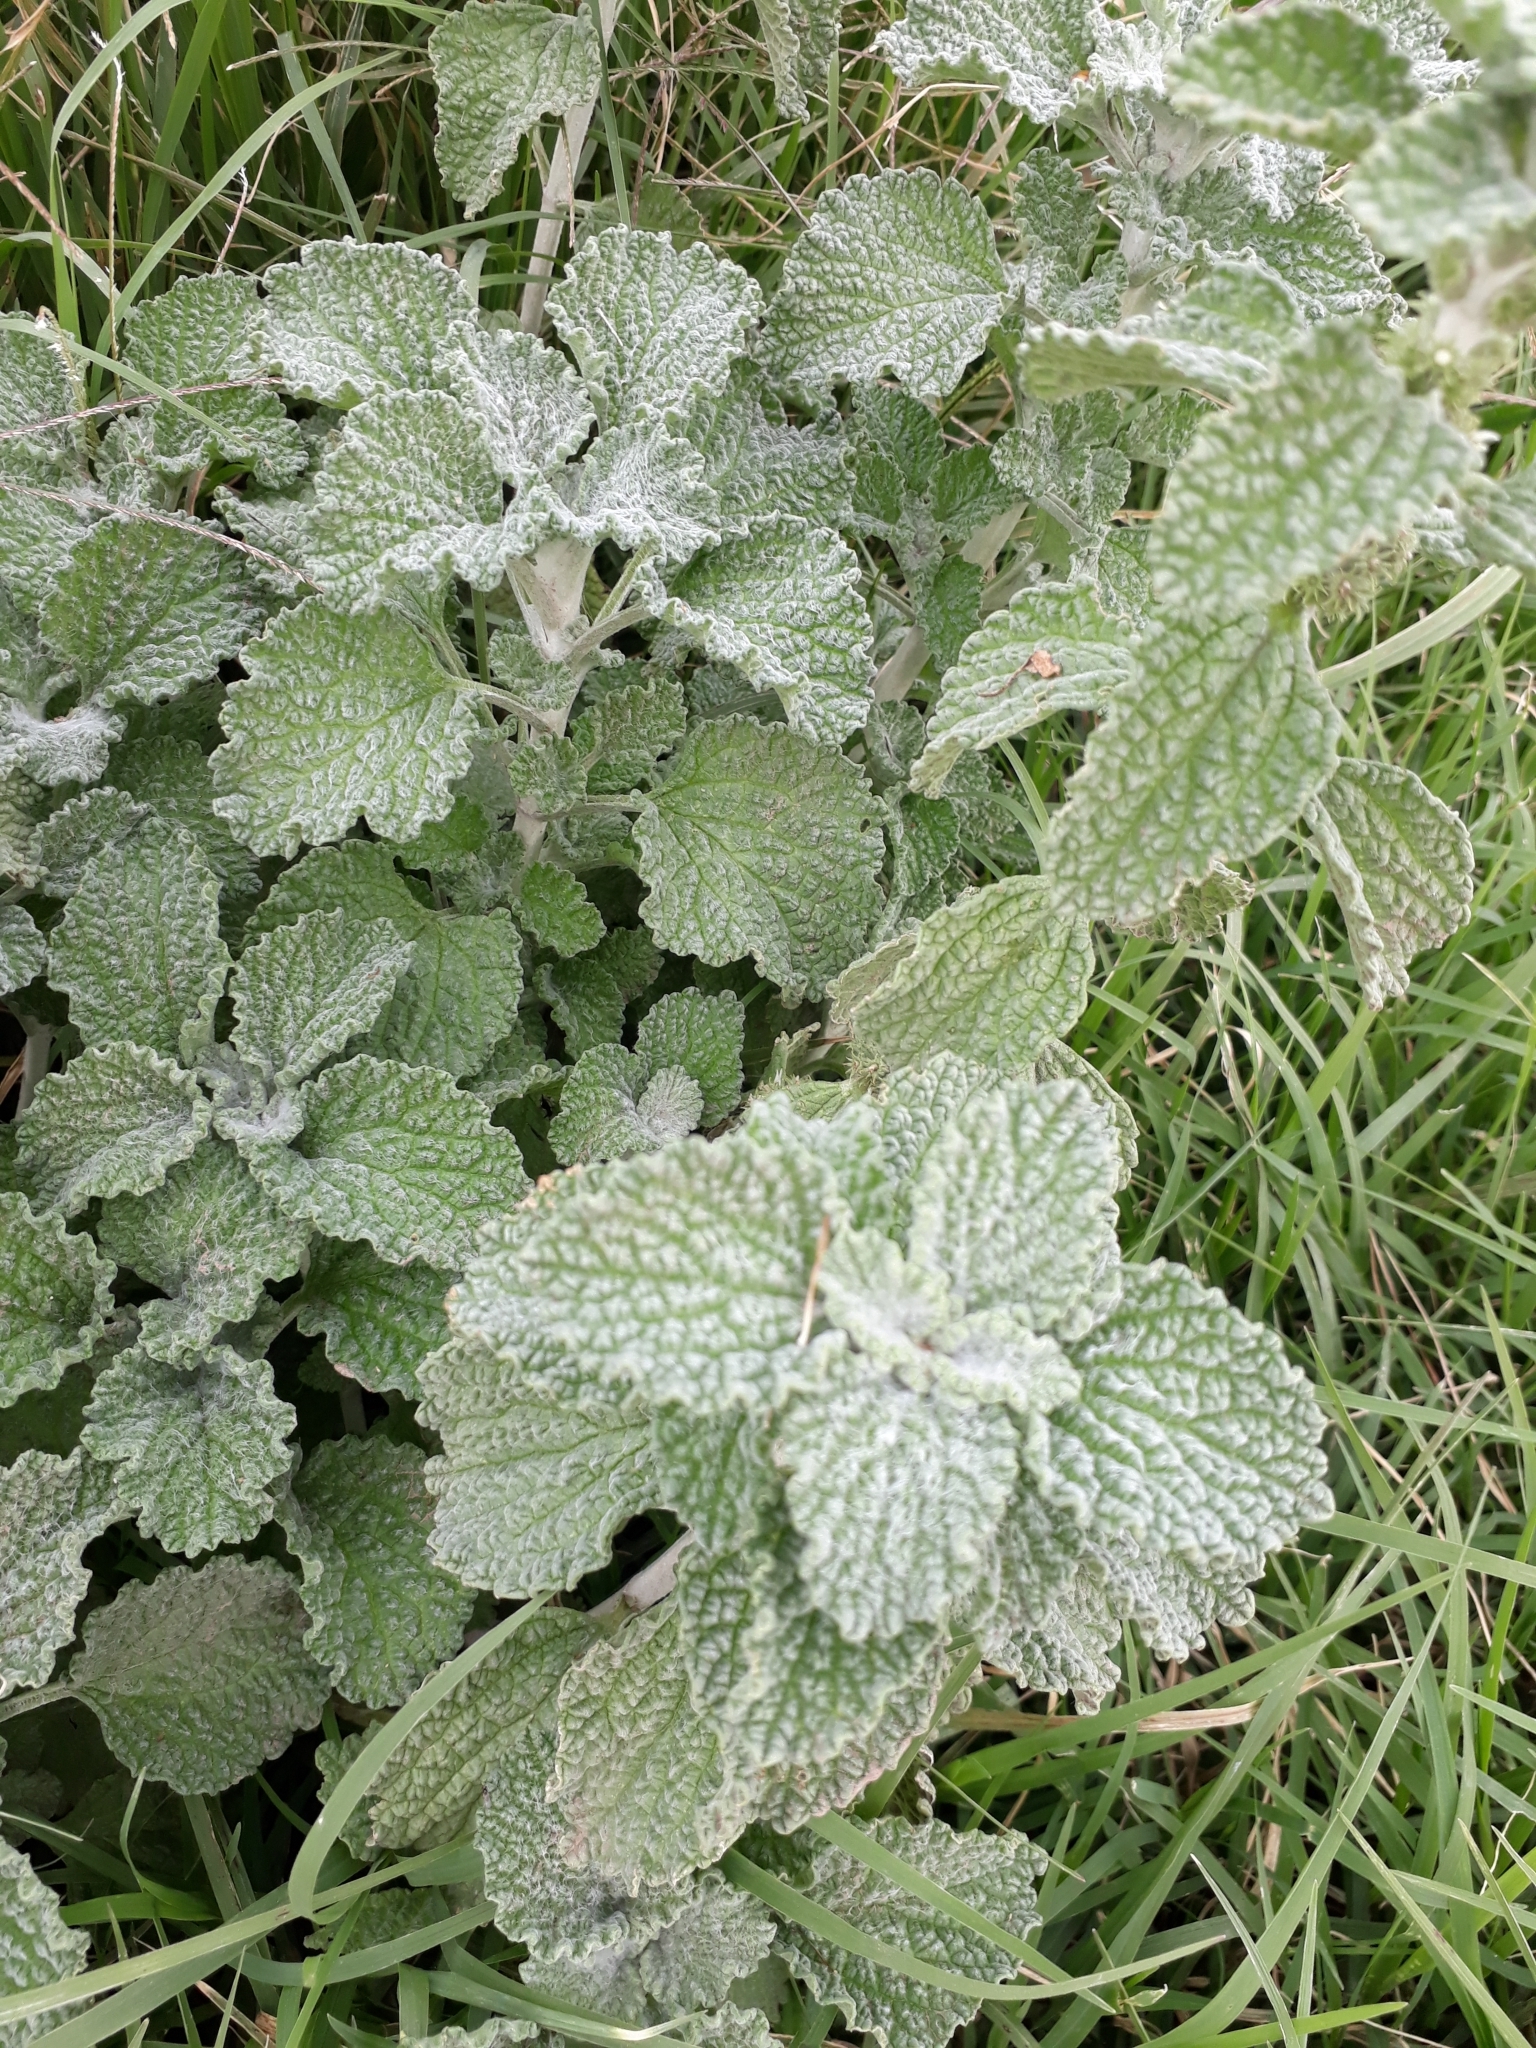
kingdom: Plantae
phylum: Tracheophyta
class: Magnoliopsida
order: Lamiales
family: Lamiaceae
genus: Marrubium
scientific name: Marrubium vulgare
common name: Horehound
